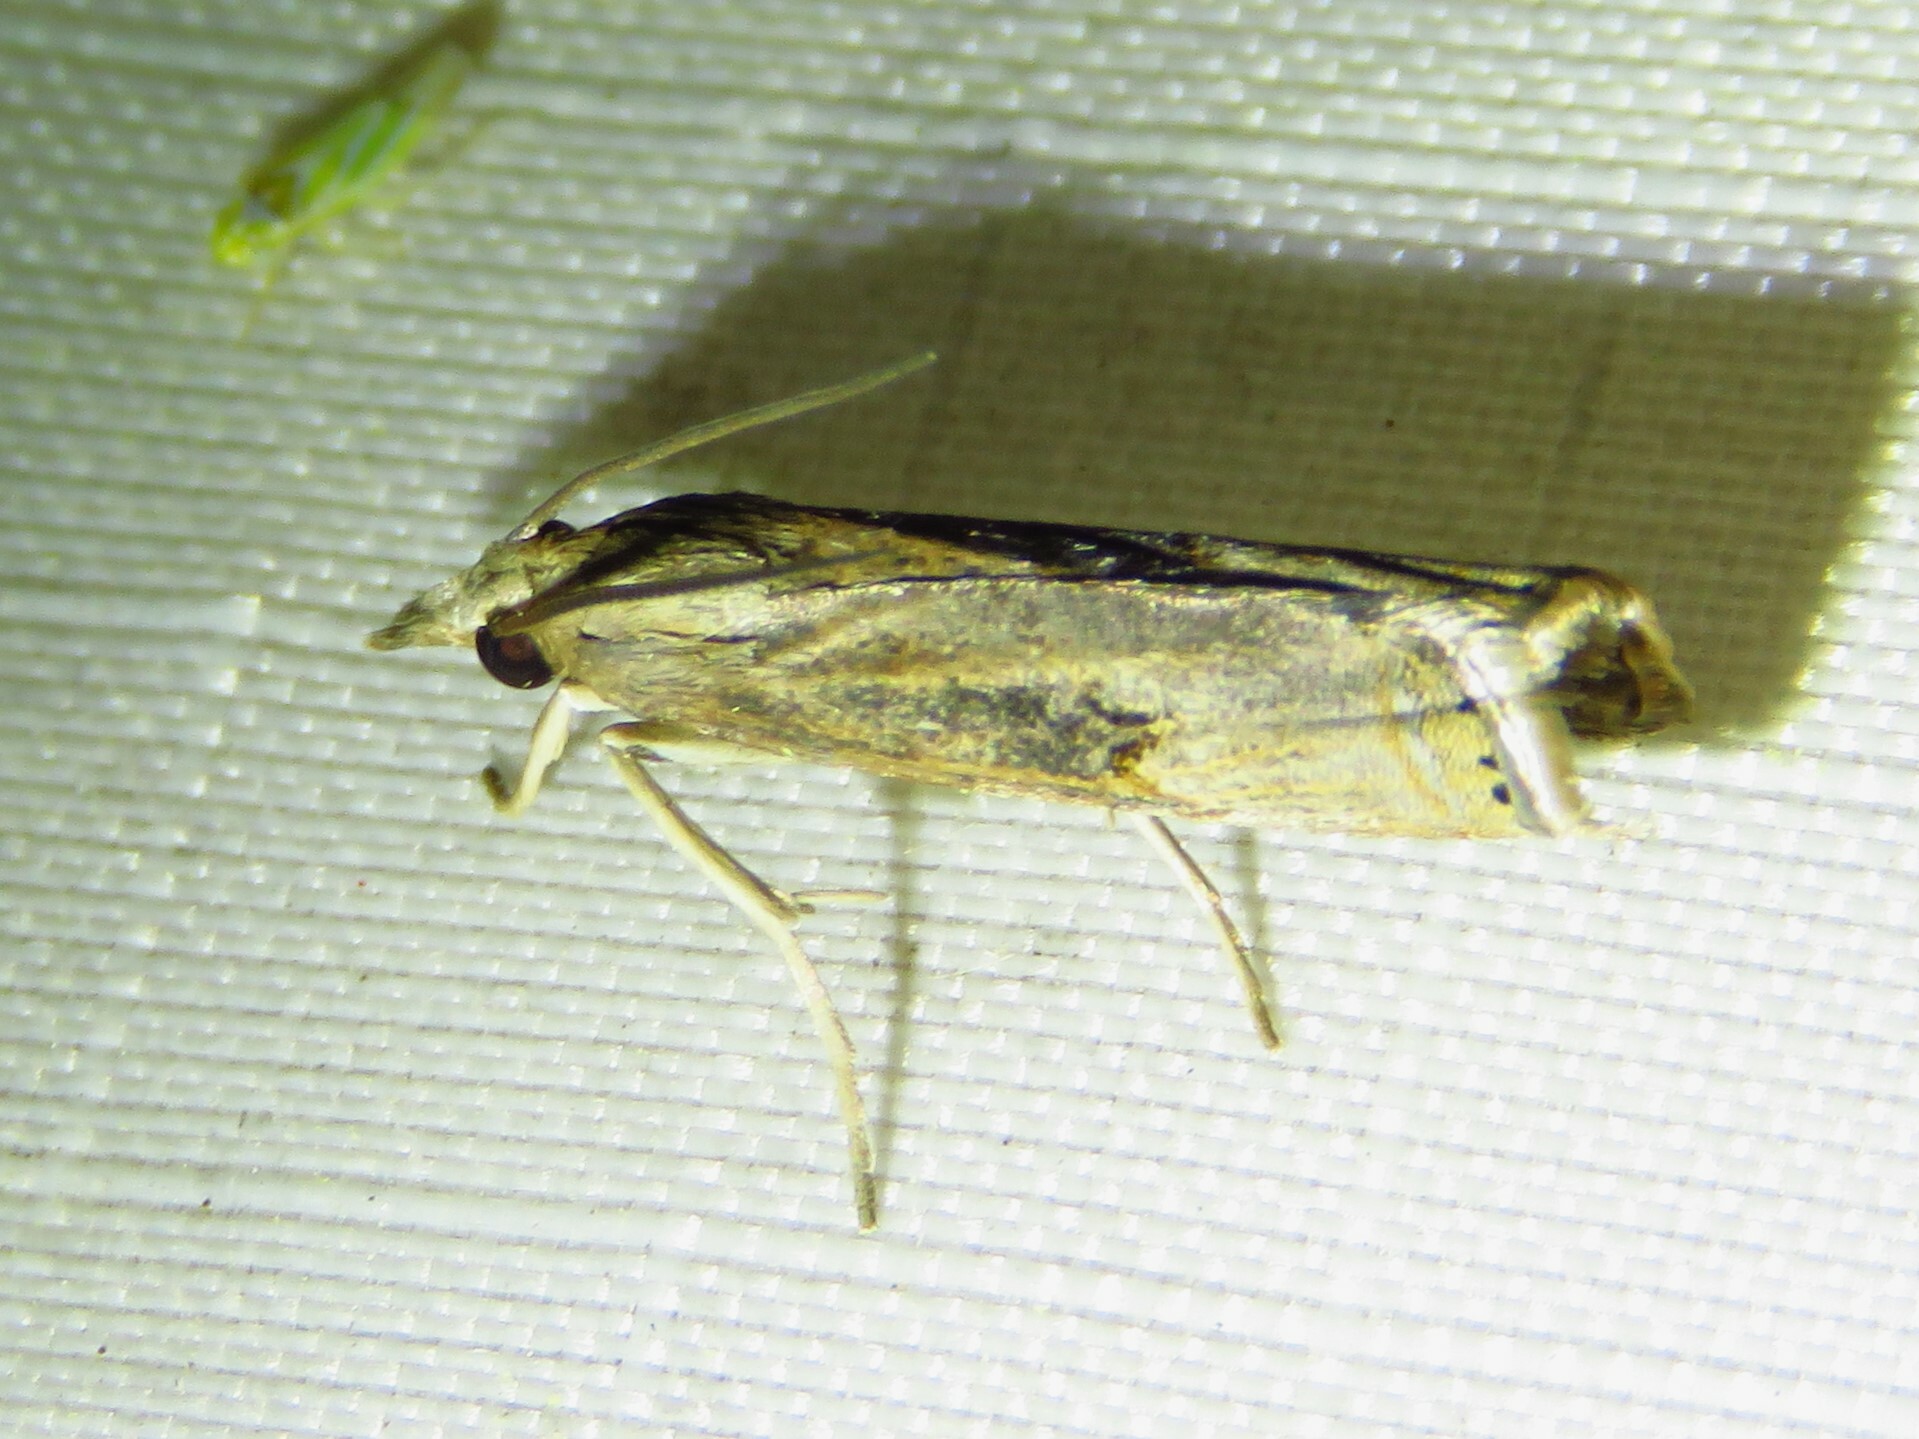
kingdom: Animalia
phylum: Arthropoda
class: Insecta
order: Lepidoptera
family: Crambidae
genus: Parapediasia
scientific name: Parapediasia teterellus
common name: Bluegrass webworm moth
